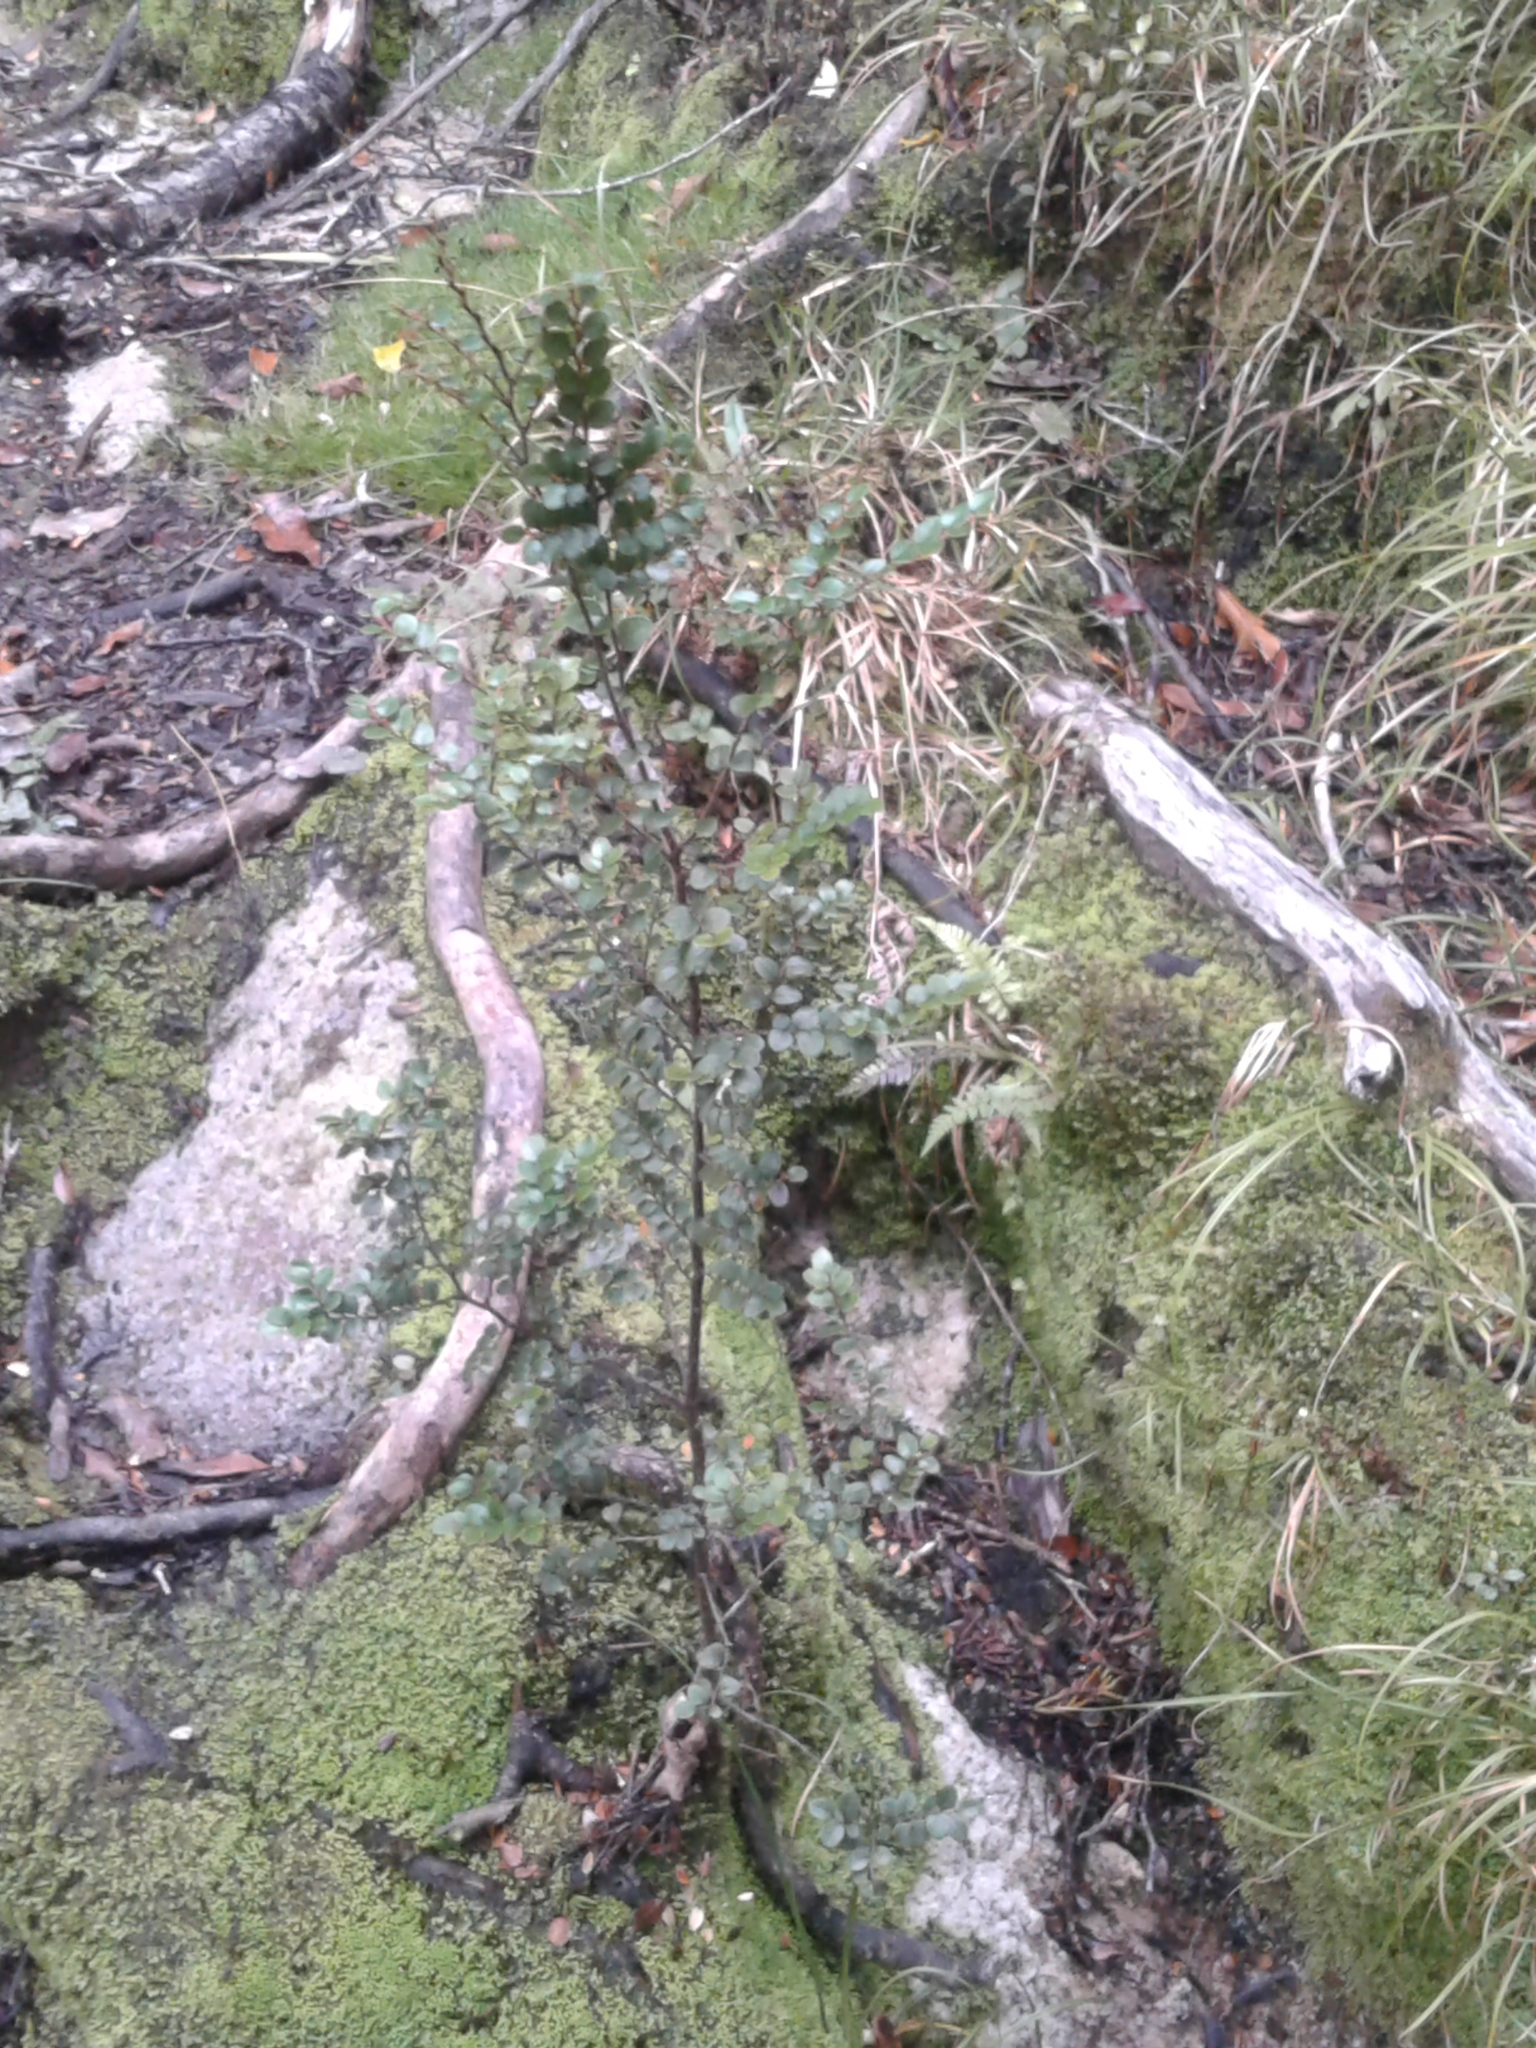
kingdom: Plantae
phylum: Tracheophyta
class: Magnoliopsida
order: Fagales
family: Nothofagaceae
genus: Nothofagus
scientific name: Nothofagus cliffortioides
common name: Mountain beech
